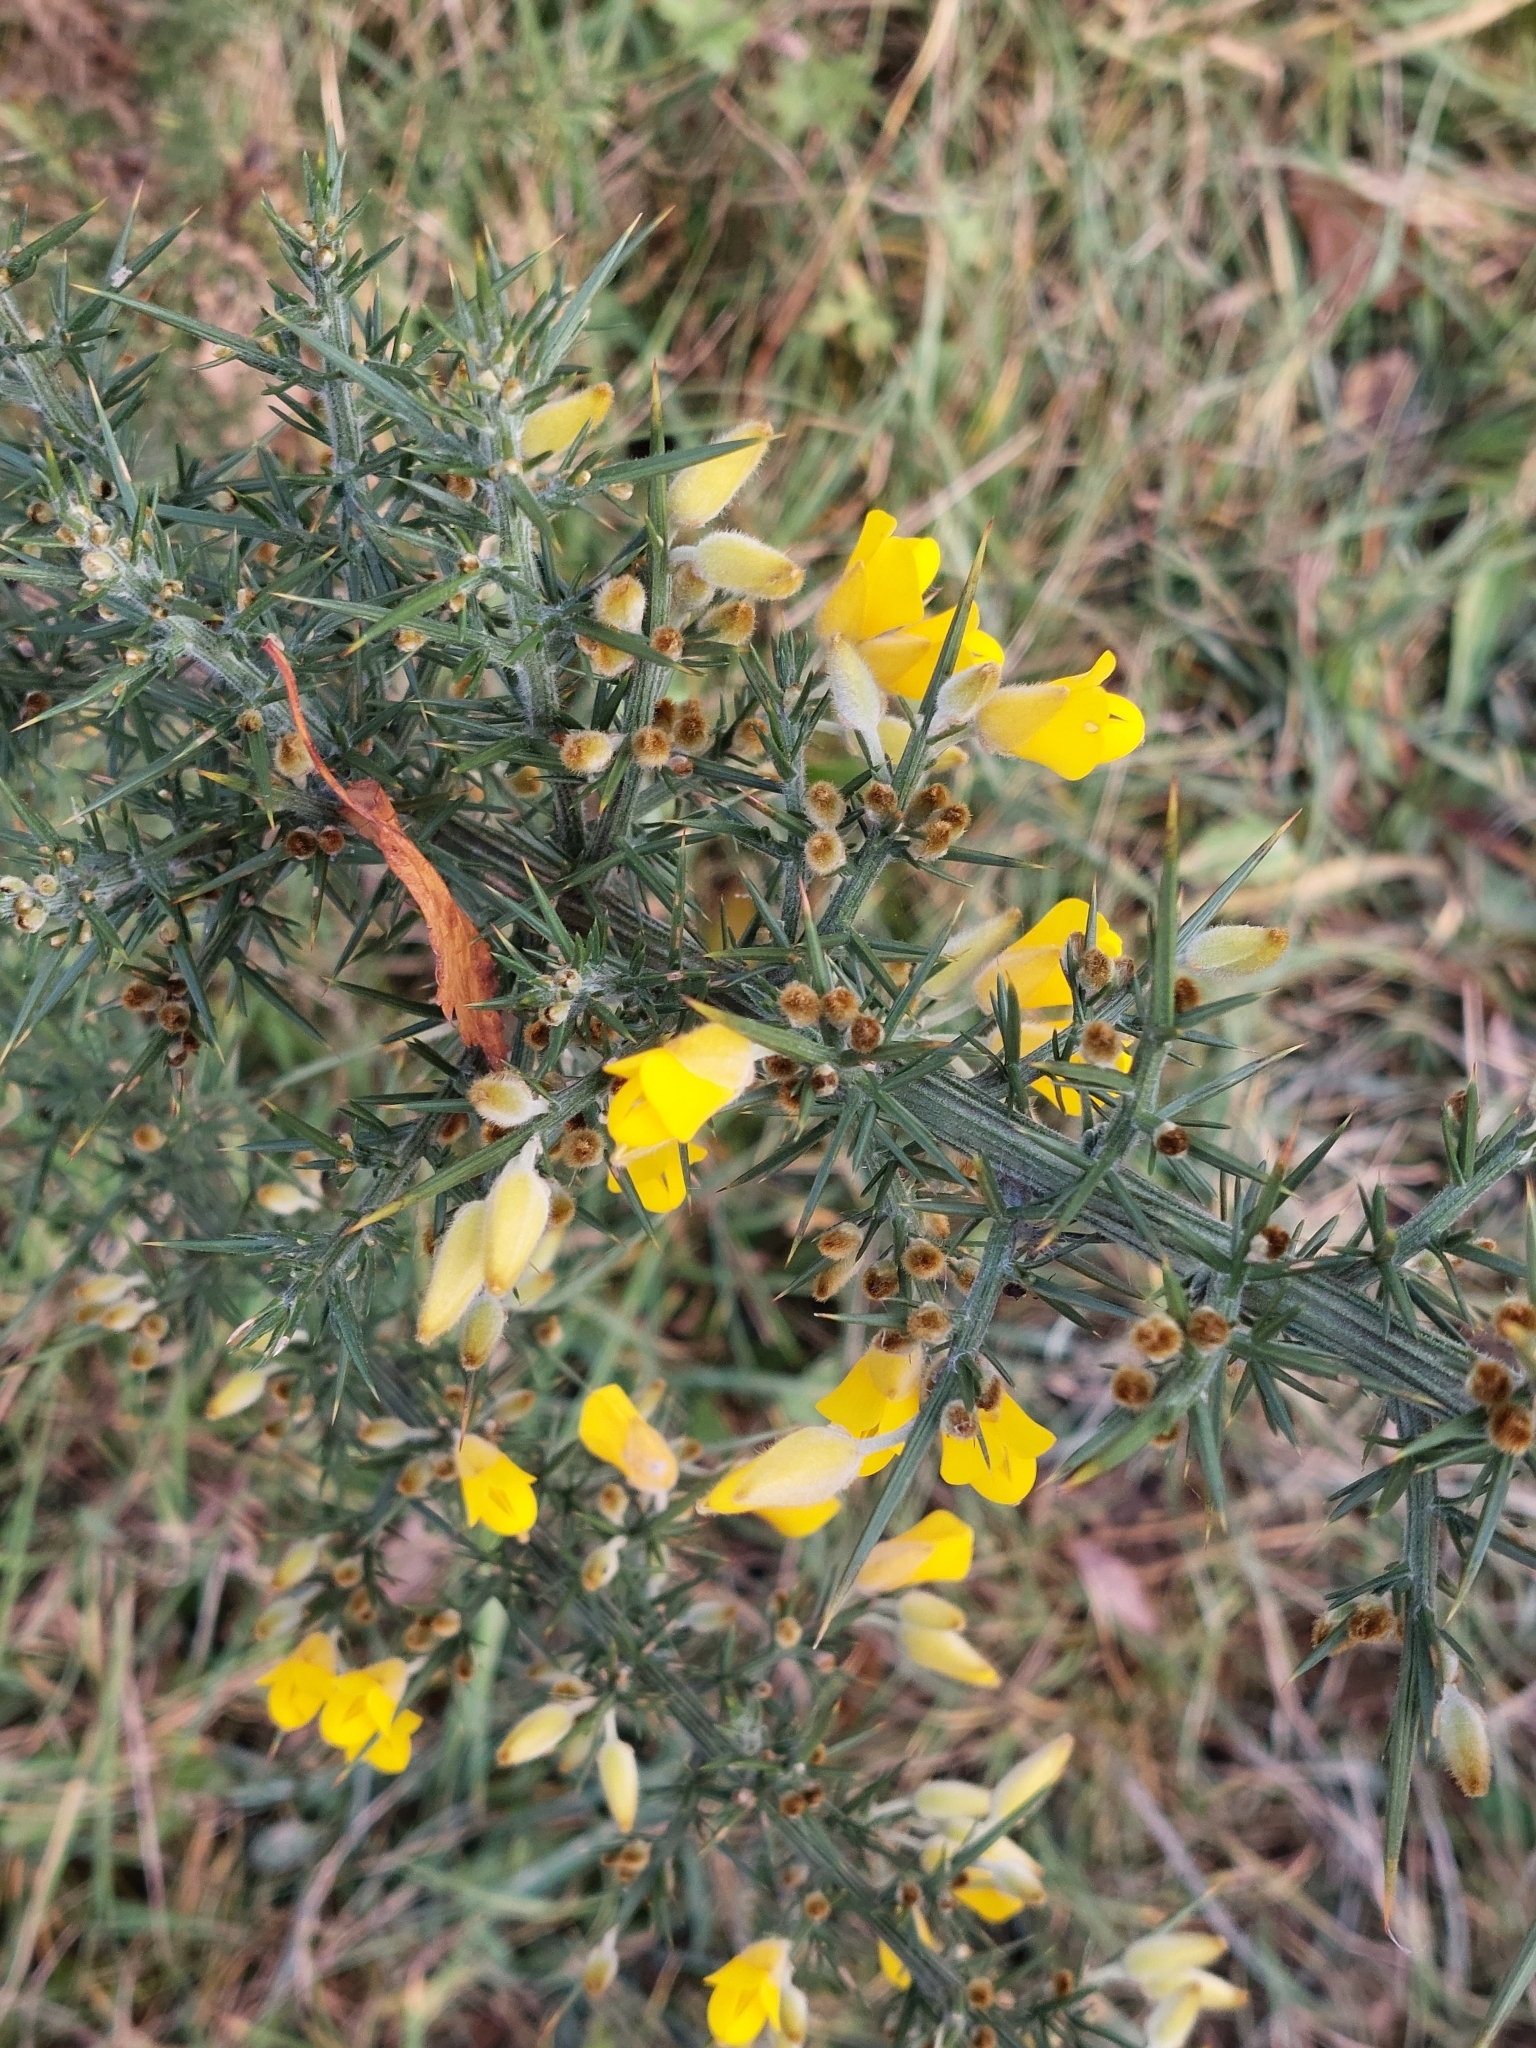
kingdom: Plantae
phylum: Tracheophyta
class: Magnoliopsida
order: Fabales
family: Fabaceae
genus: Ulex
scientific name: Ulex europaeus
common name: Common gorse
